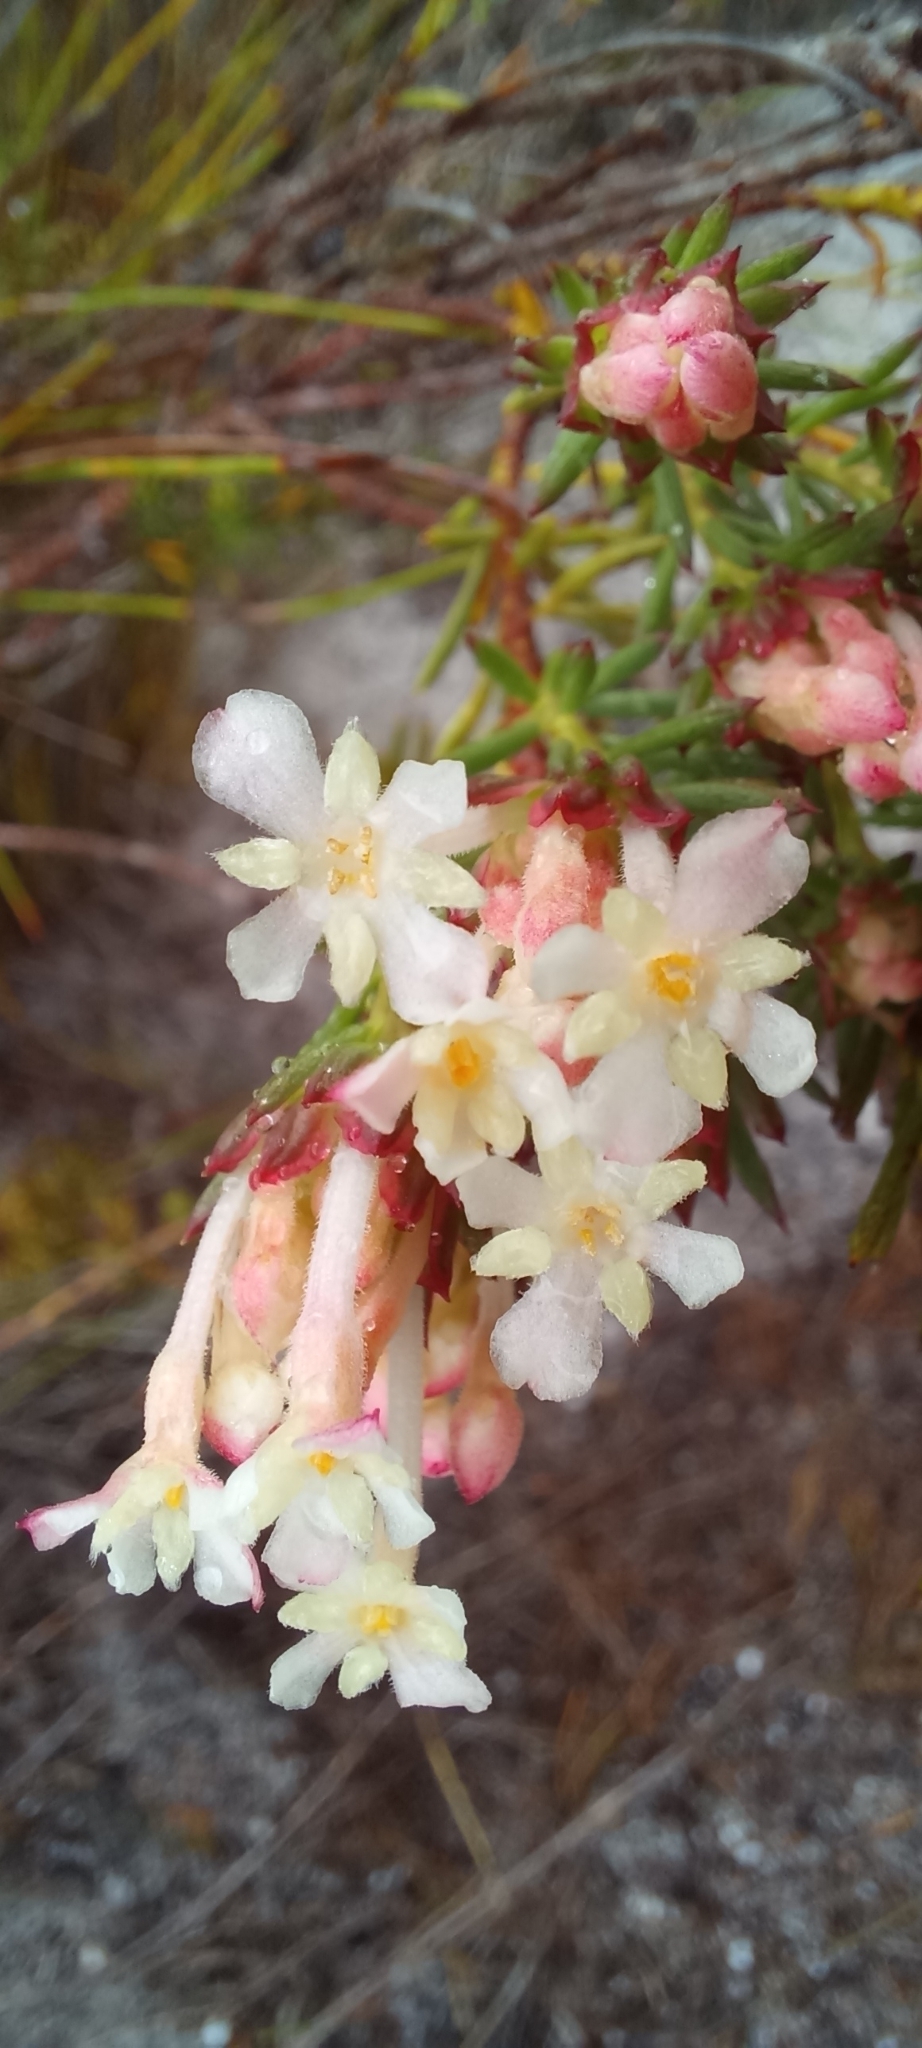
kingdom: Plantae
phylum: Tracheophyta
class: Magnoliopsida
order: Malvales
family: Thymelaeaceae
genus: Gnidia
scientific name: Gnidia pinifolia
